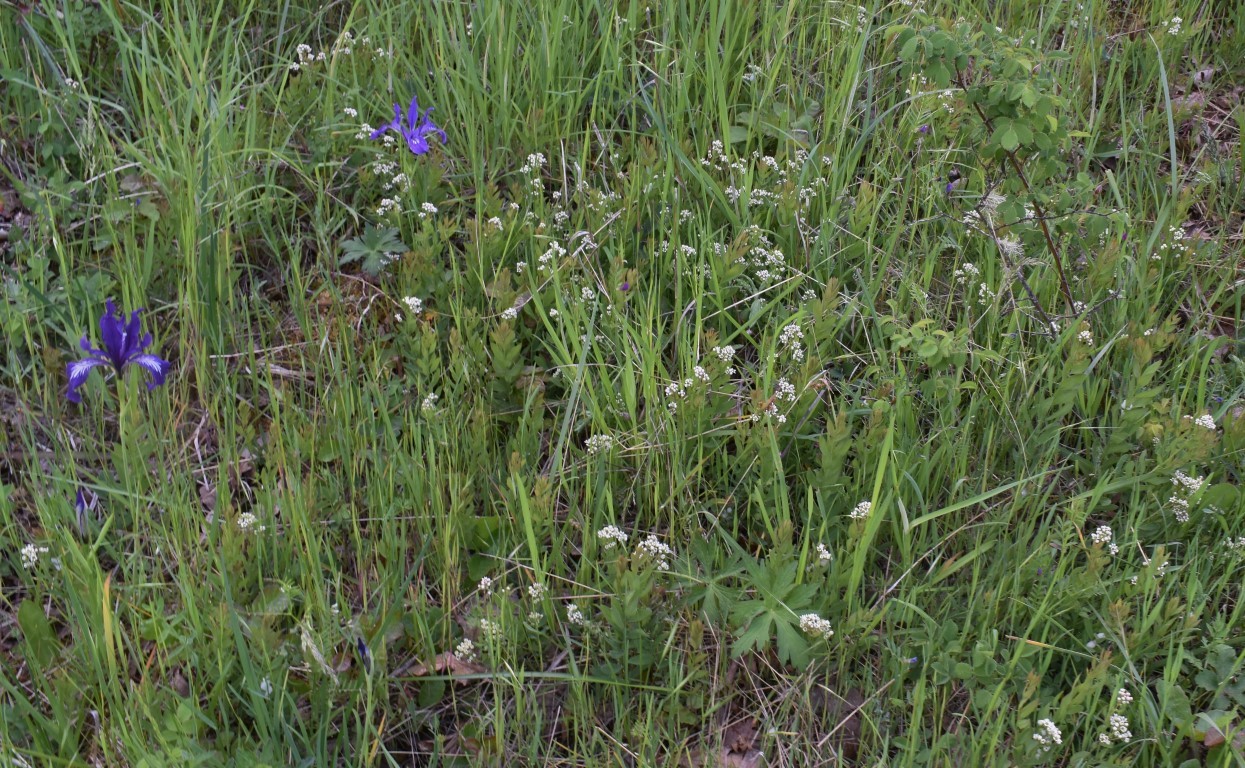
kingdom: Plantae
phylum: Tracheophyta
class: Magnoliopsida
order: Santalales
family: Comandraceae
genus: Comandra
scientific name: Comandra umbellata
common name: Bastard toadflax
